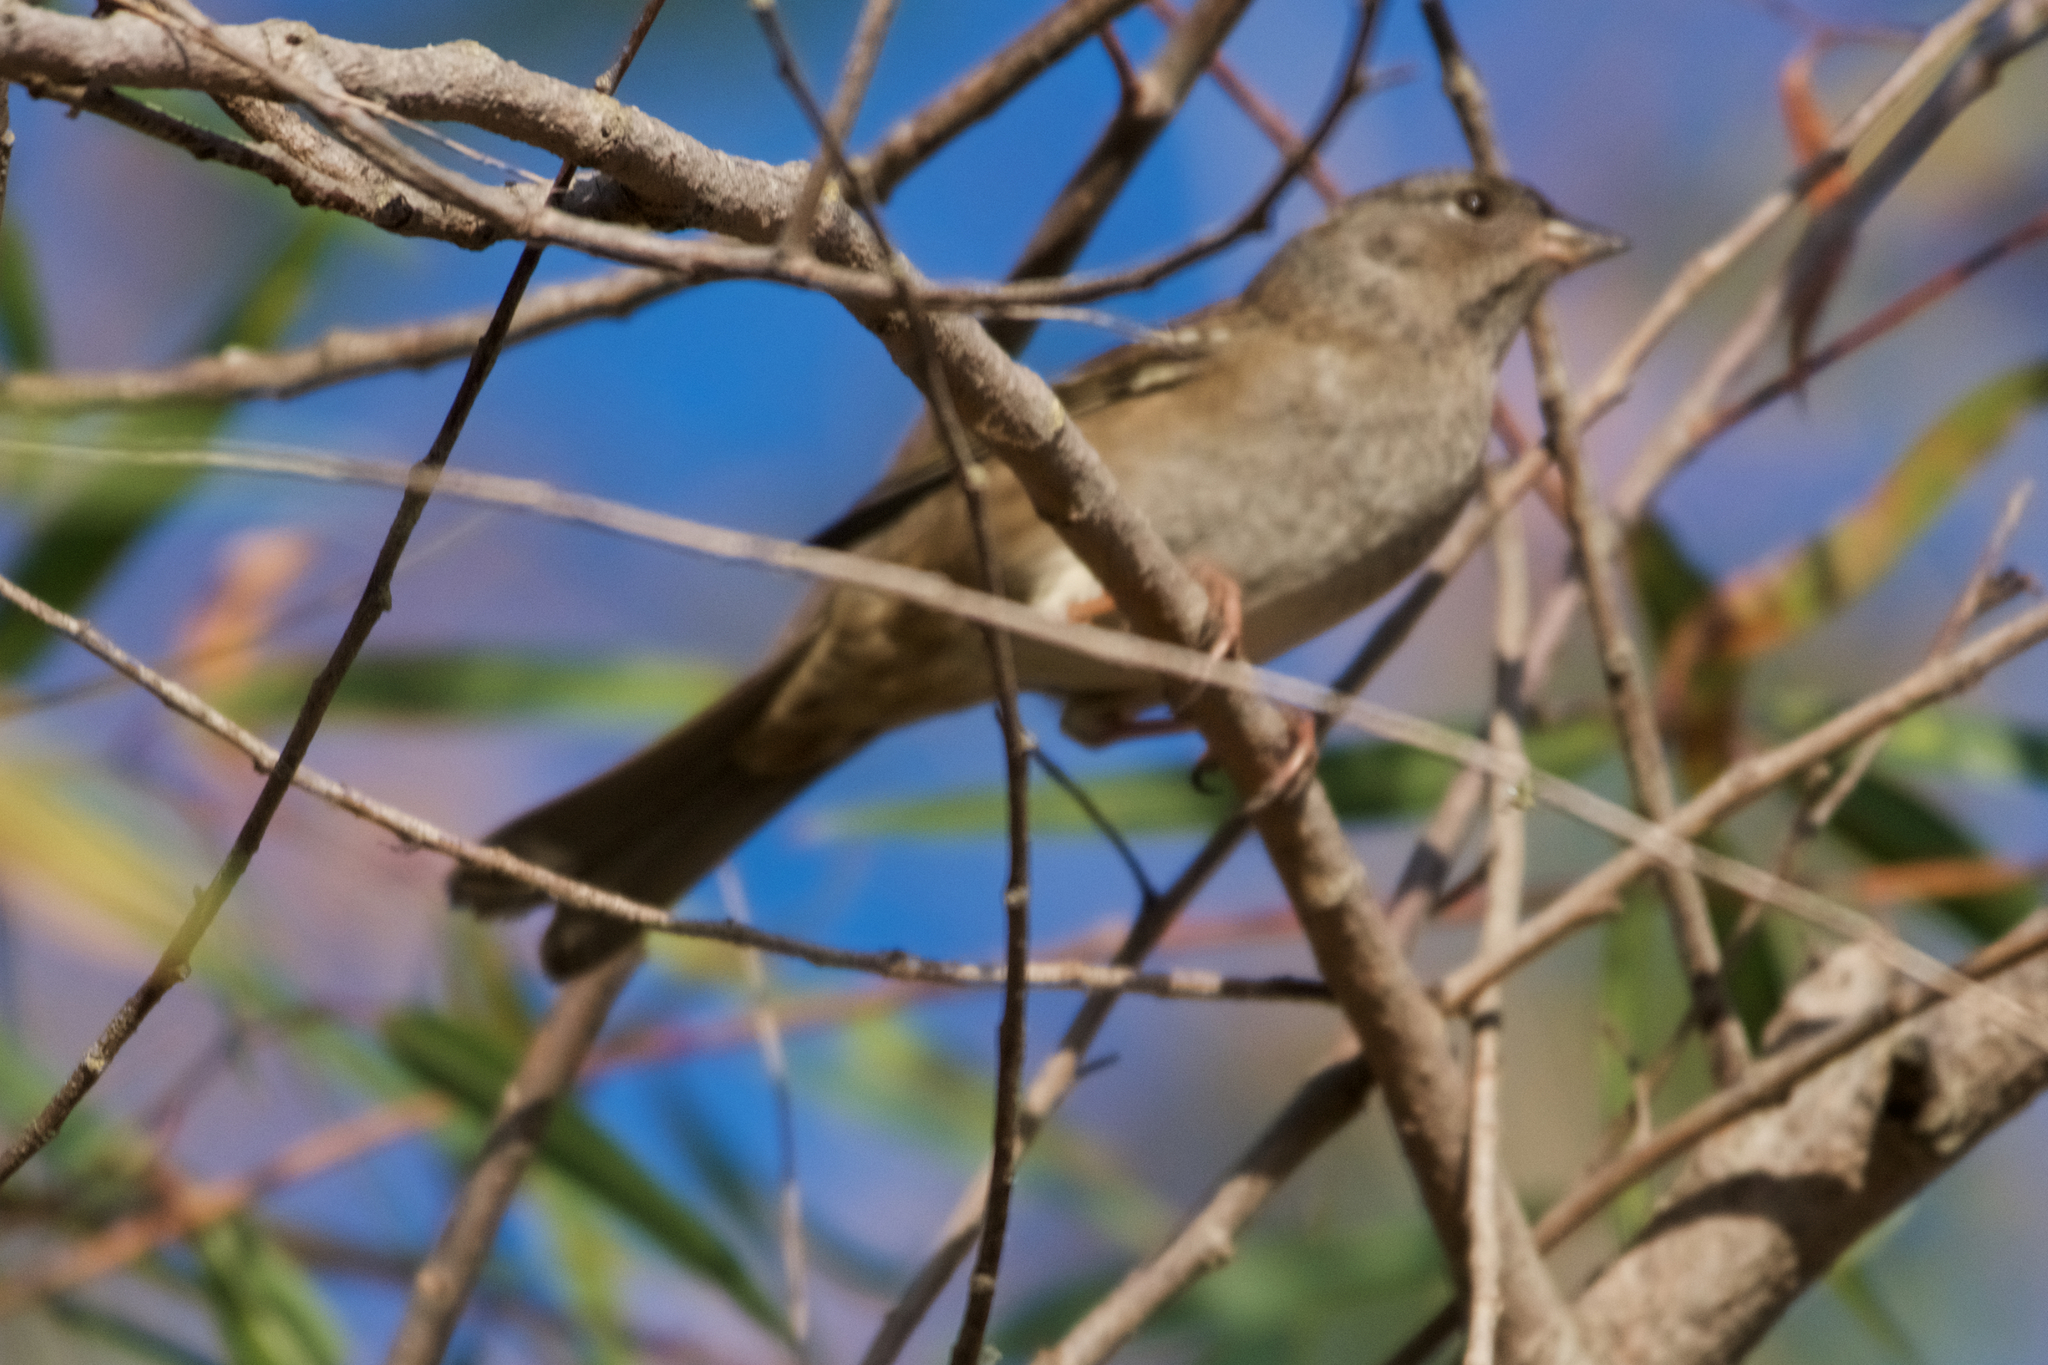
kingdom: Animalia
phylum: Chordata
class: Aves
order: Passeriformes
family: Passerellidae
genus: Zonotrichia
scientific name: Zonotrichia atricapilla
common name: Golden-crowned sparrow
